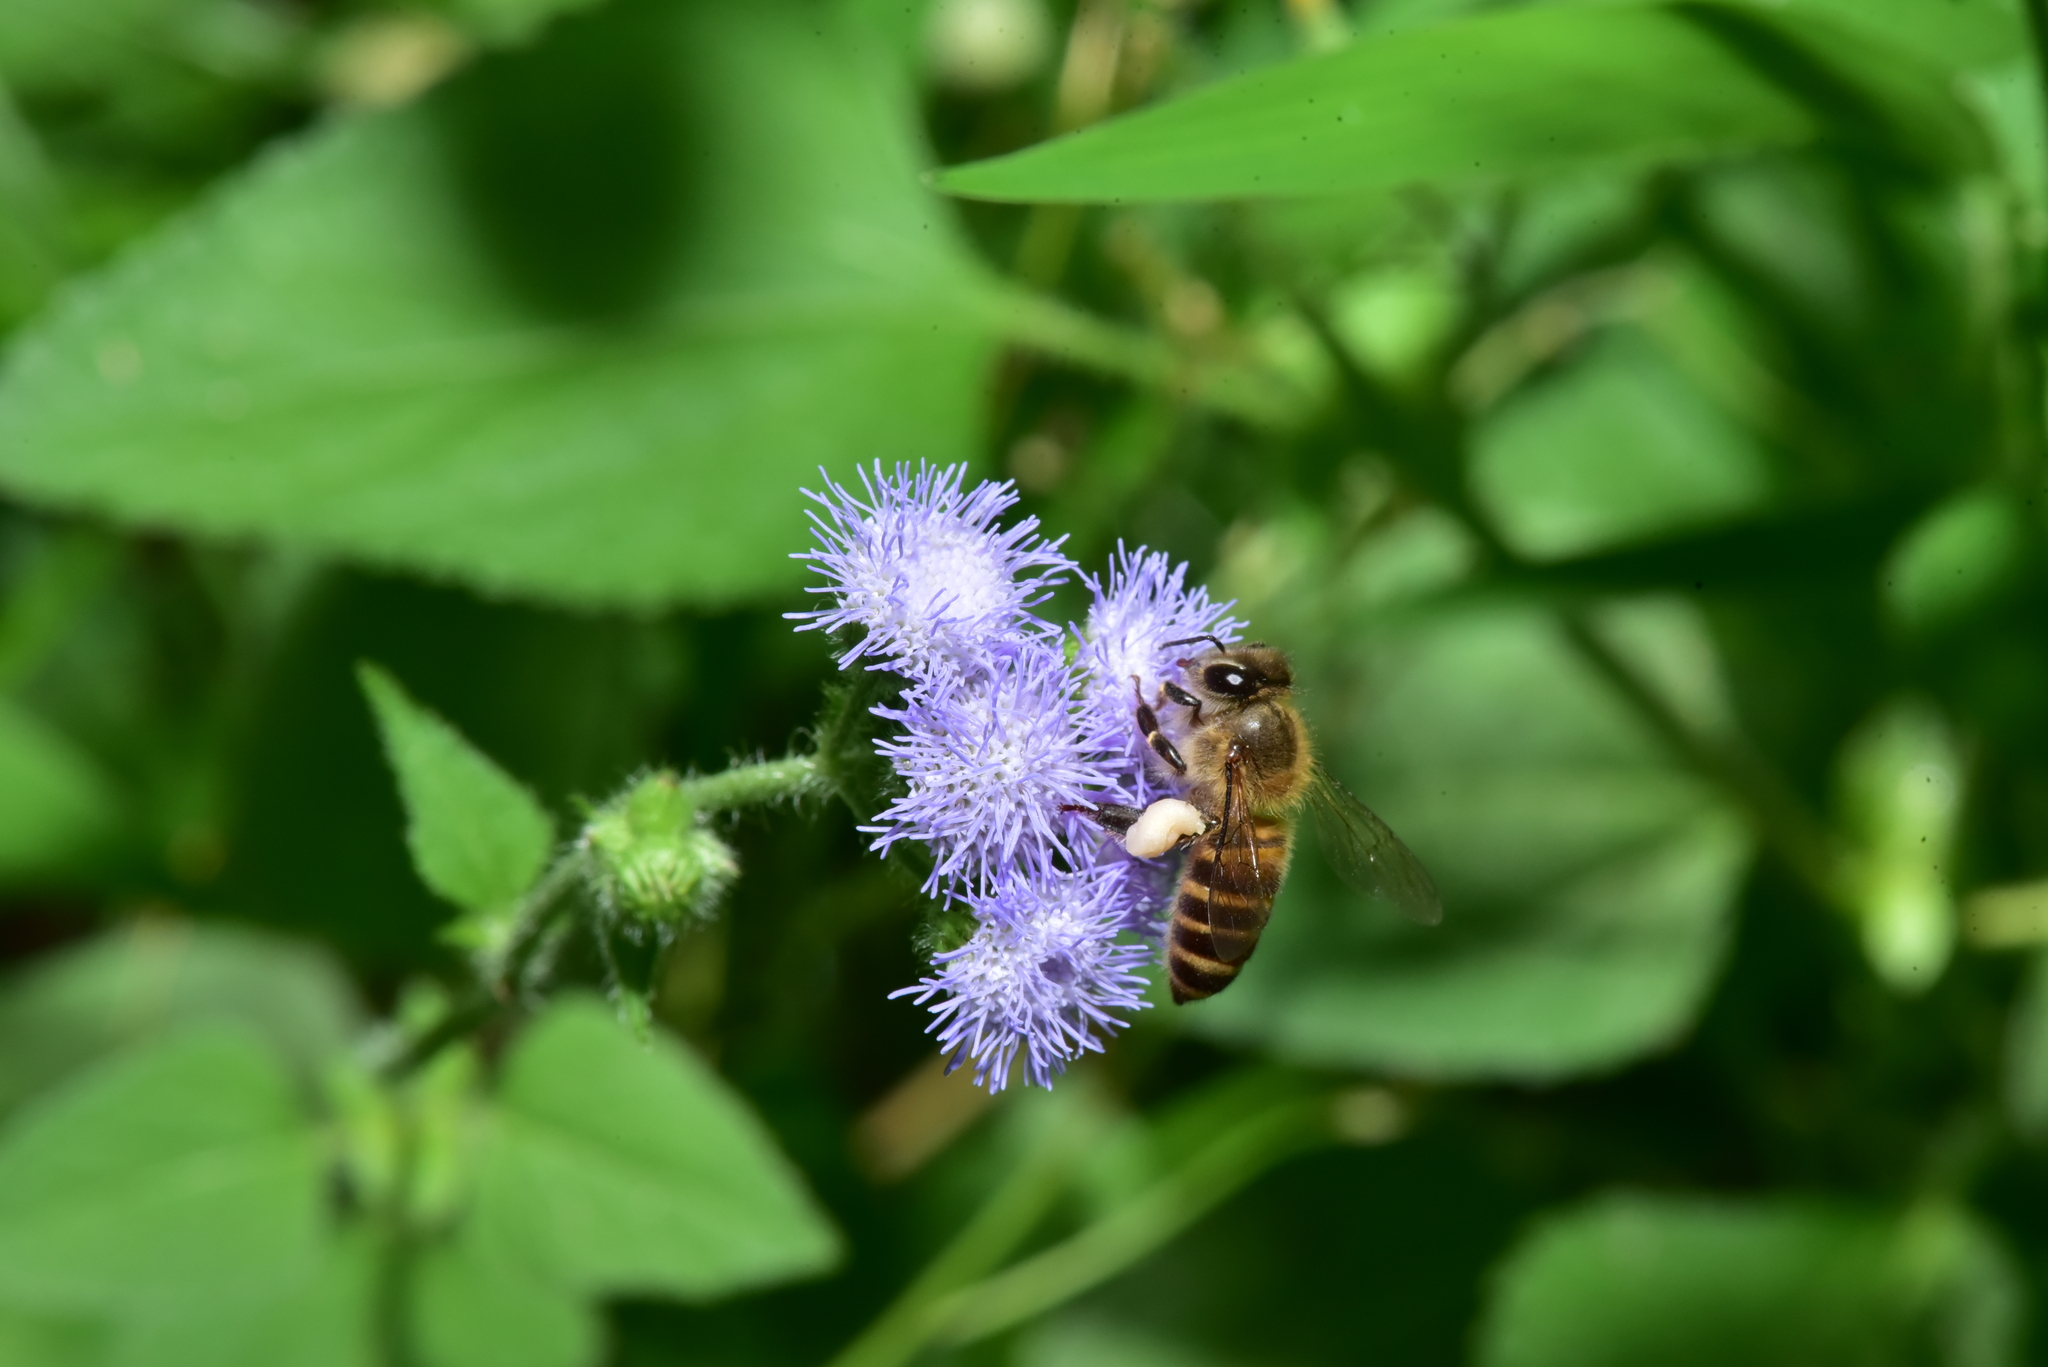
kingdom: Animalia
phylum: Arthropoda
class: Insecta
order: Hymenoptera
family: Apidae
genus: Apis
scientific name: Apis cerana
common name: Honey bee
